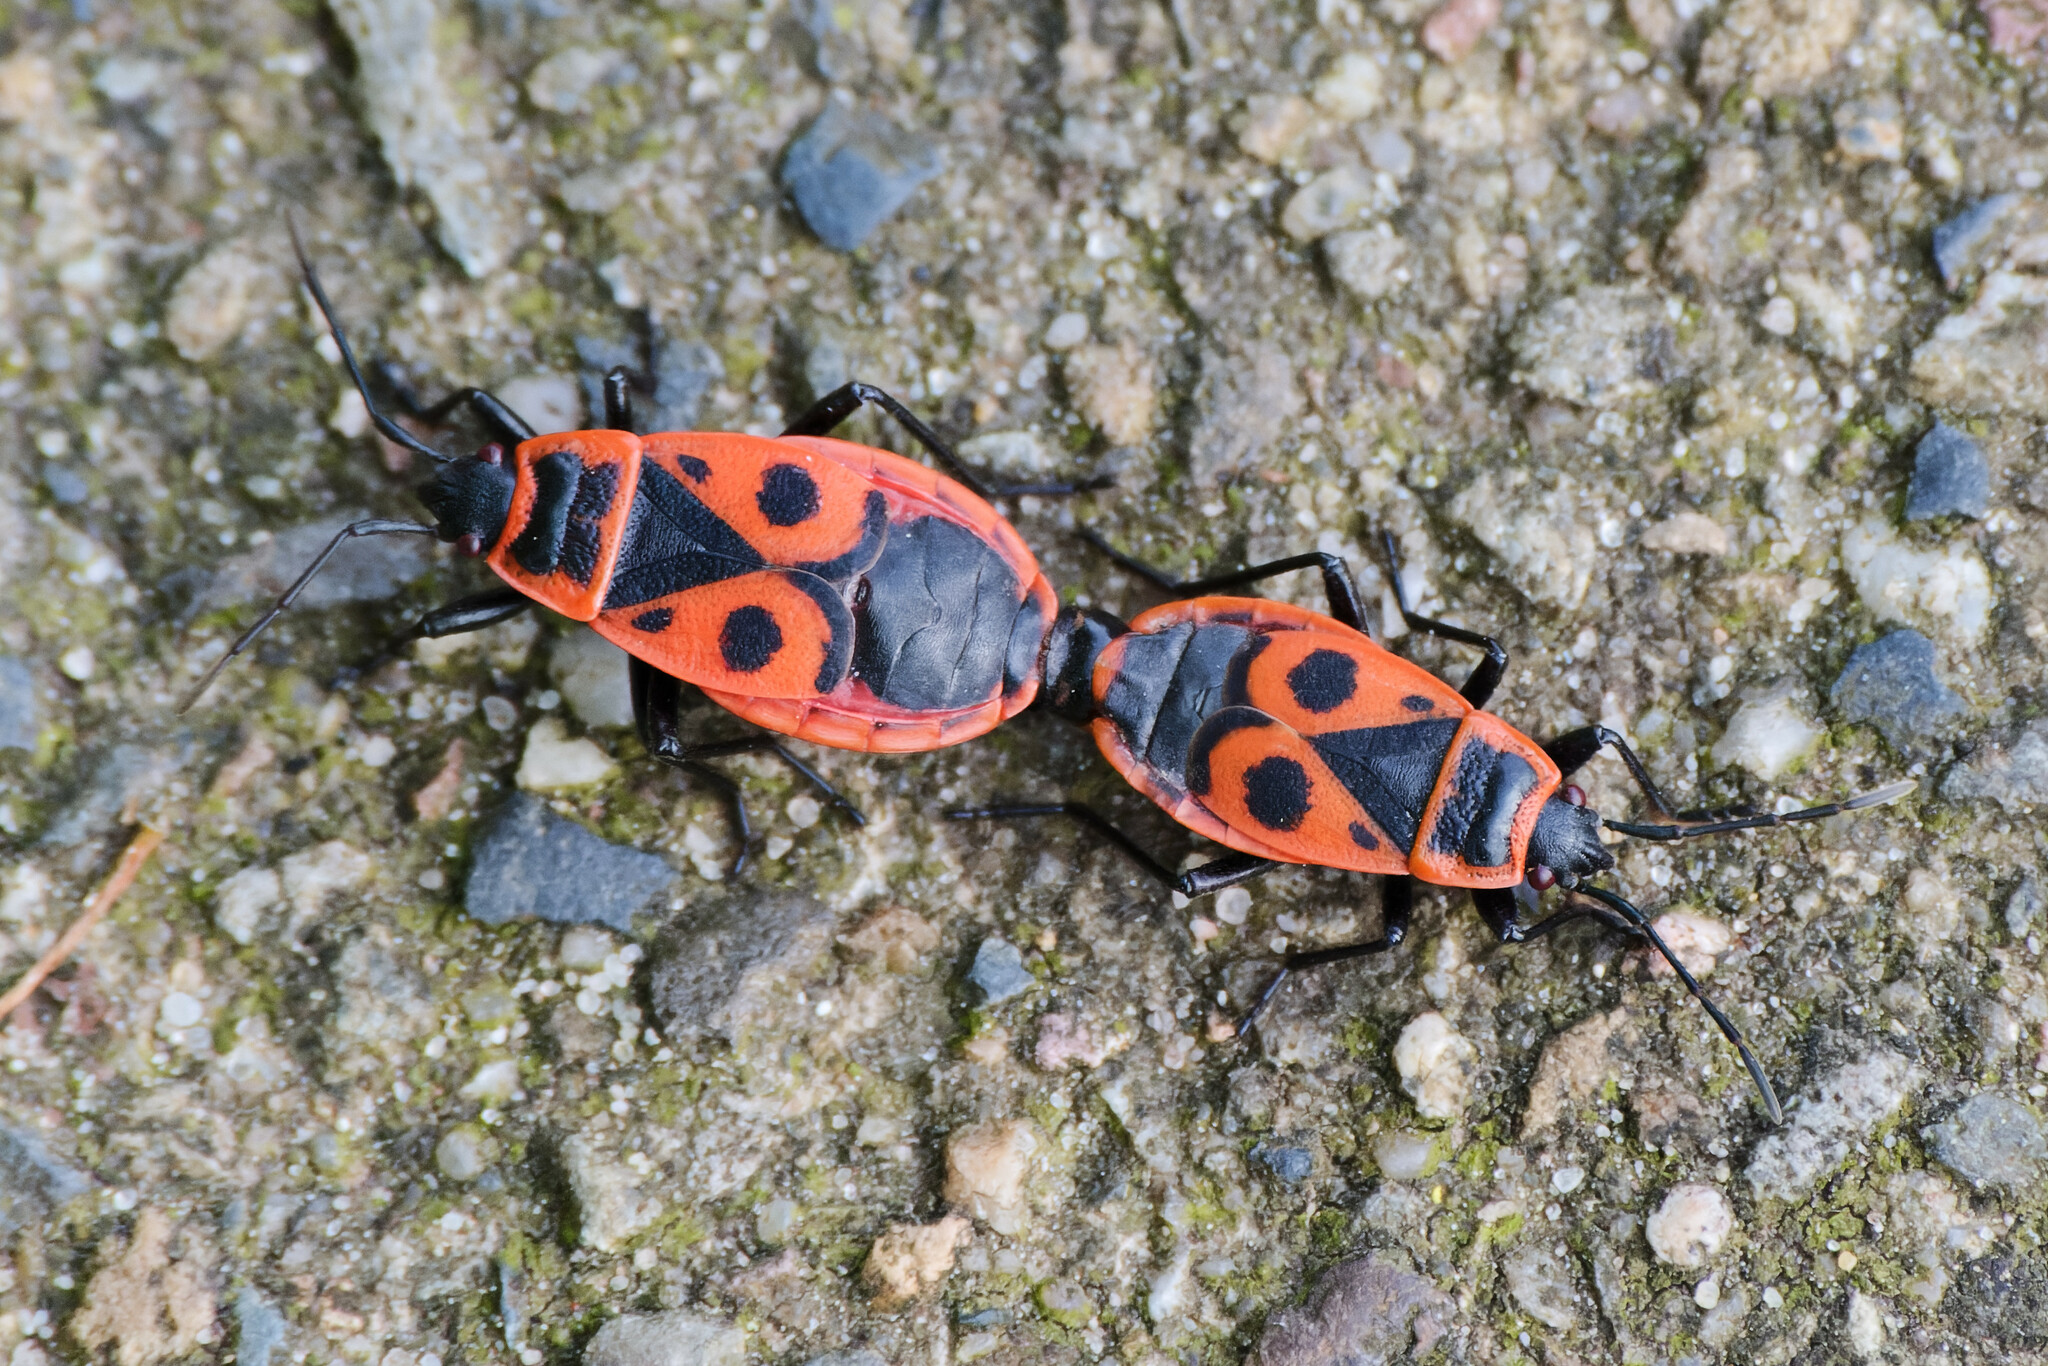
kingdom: Animalia
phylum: Arthropoda
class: Insecta
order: Hemiptera
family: Pyrrhocoridae
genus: Pyrrhocoris
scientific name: Pyrrhocoris apterus
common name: Firebug
